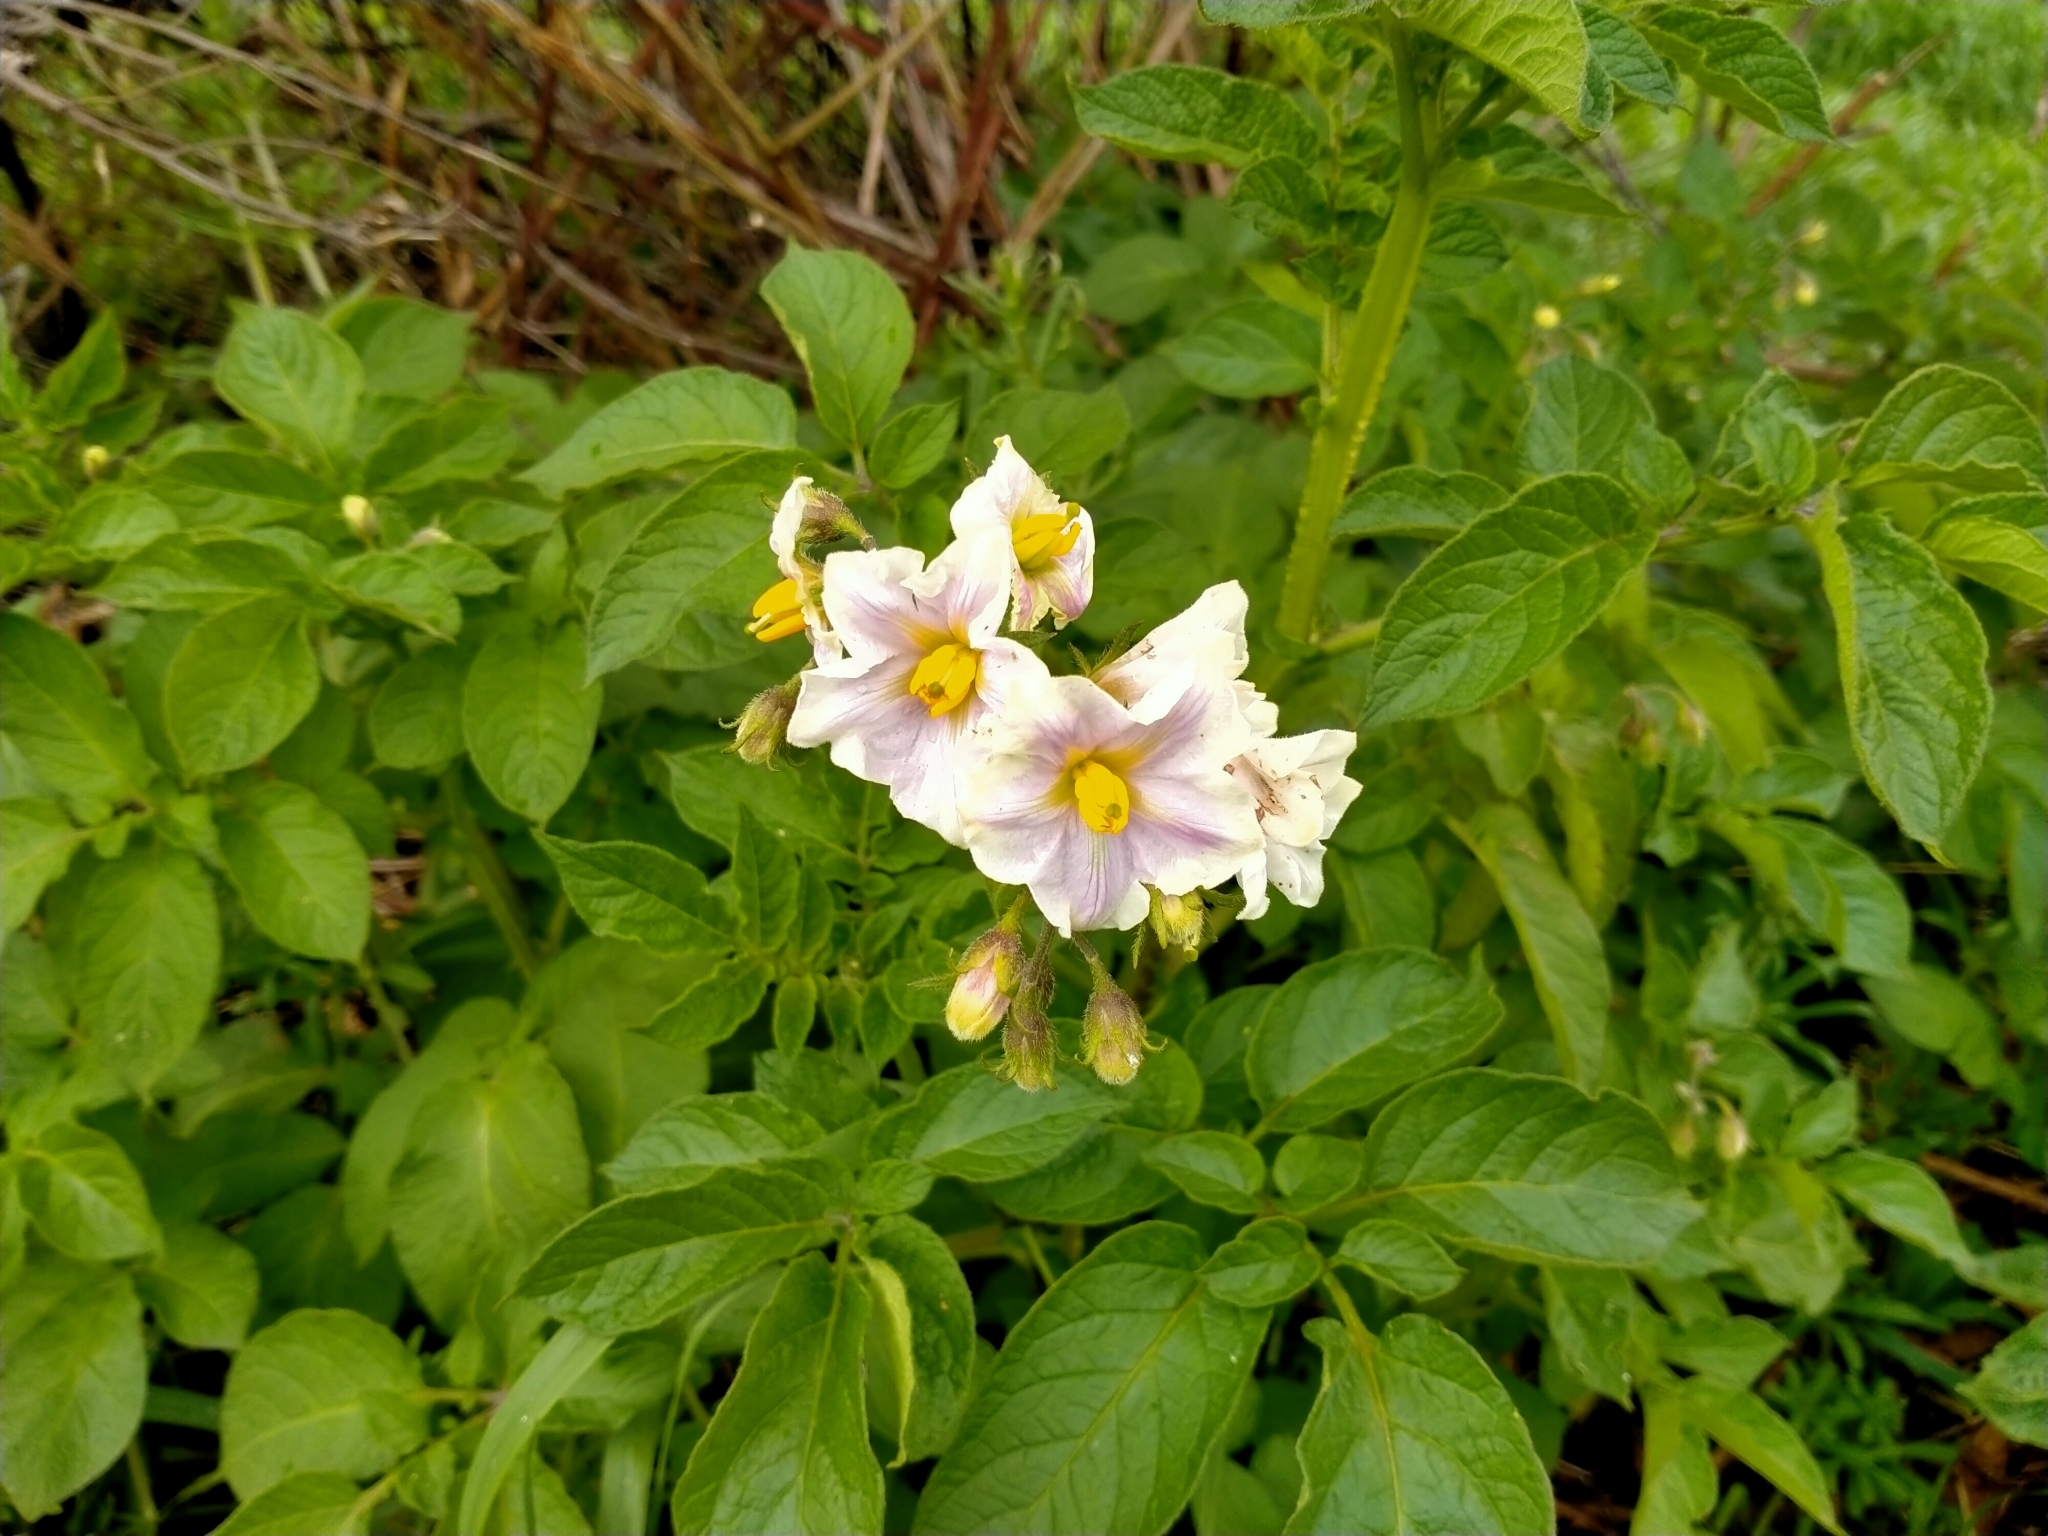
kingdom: Plantae
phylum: Tracheophyta
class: Magnoliopsida
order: Solanales
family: Solanaceae
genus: Solanum
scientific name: Solanum tuberosum
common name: Potato
